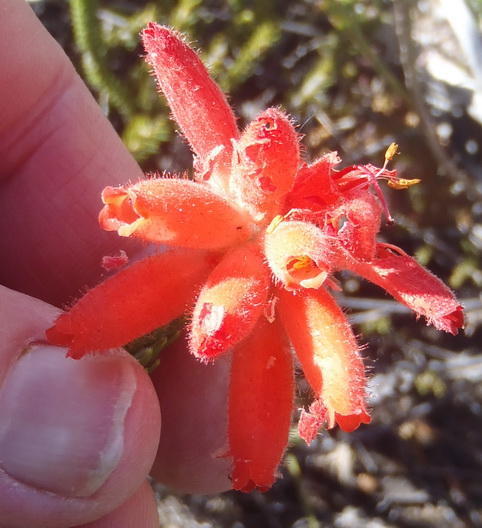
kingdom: Plantae
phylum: Tracheophyta
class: Magnoliopsida
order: Ericales
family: Ericaceae
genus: Erica
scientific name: Erica cerinthoides
